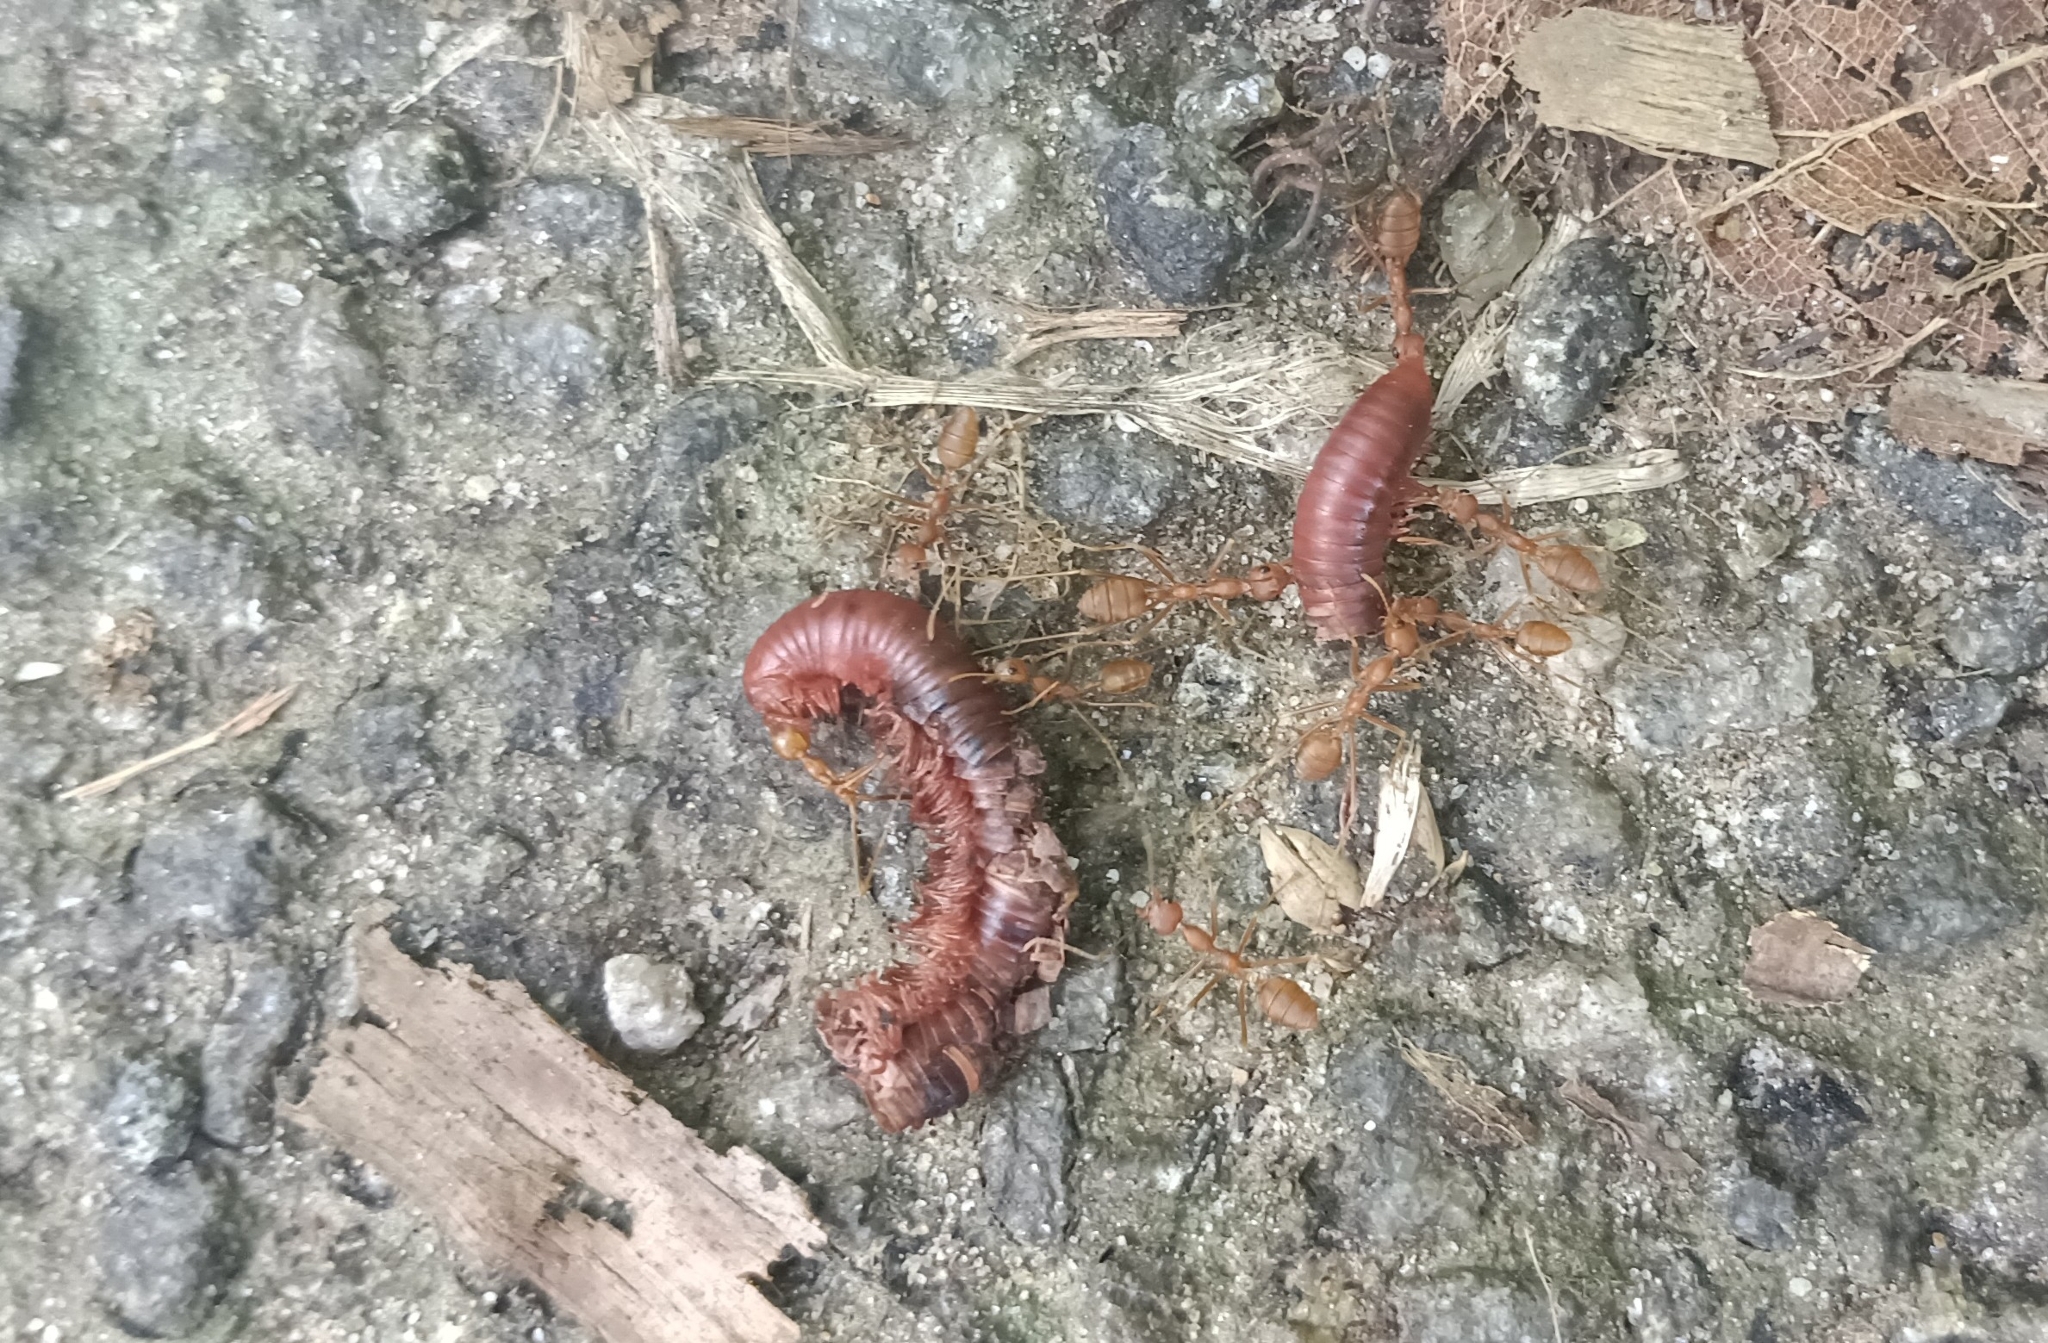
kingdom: Animalia
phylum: Arthropoda
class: Diplopoda
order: Spirobolida
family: Pachybolidae
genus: Trigoniulus
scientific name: Trigoniulus corallinus
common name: Millipede
